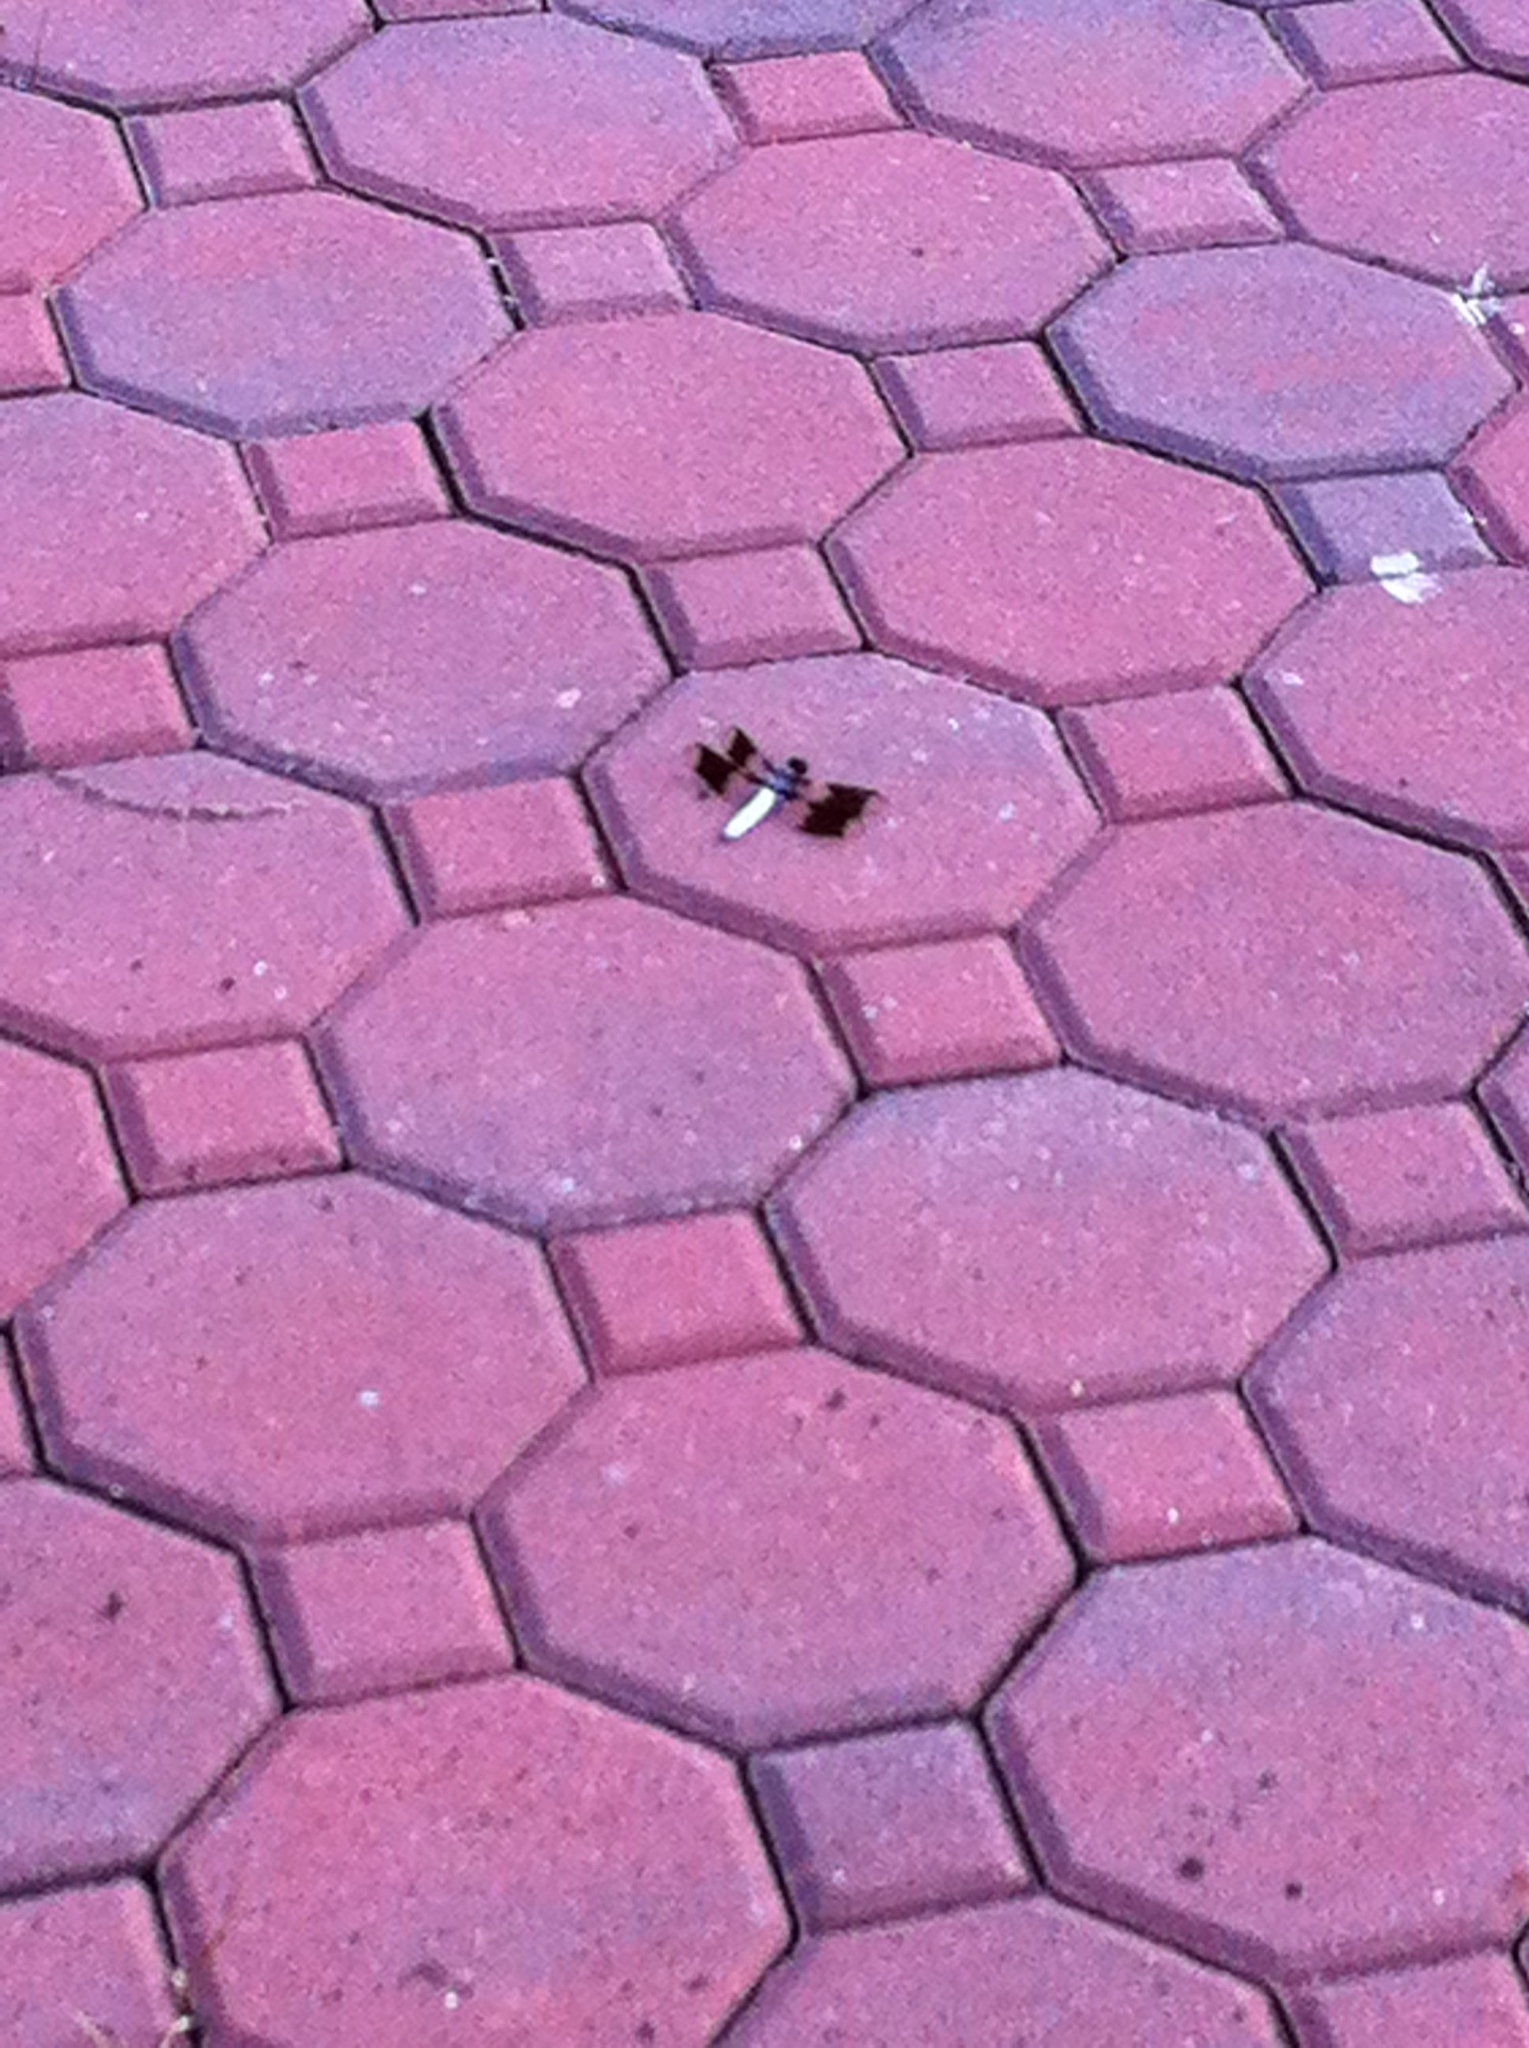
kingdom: Animalia
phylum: Arthropoda
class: Insecta
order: Odonata
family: Libellulidae
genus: Plathemis
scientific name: Plathemis lydia
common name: Common whitetail
